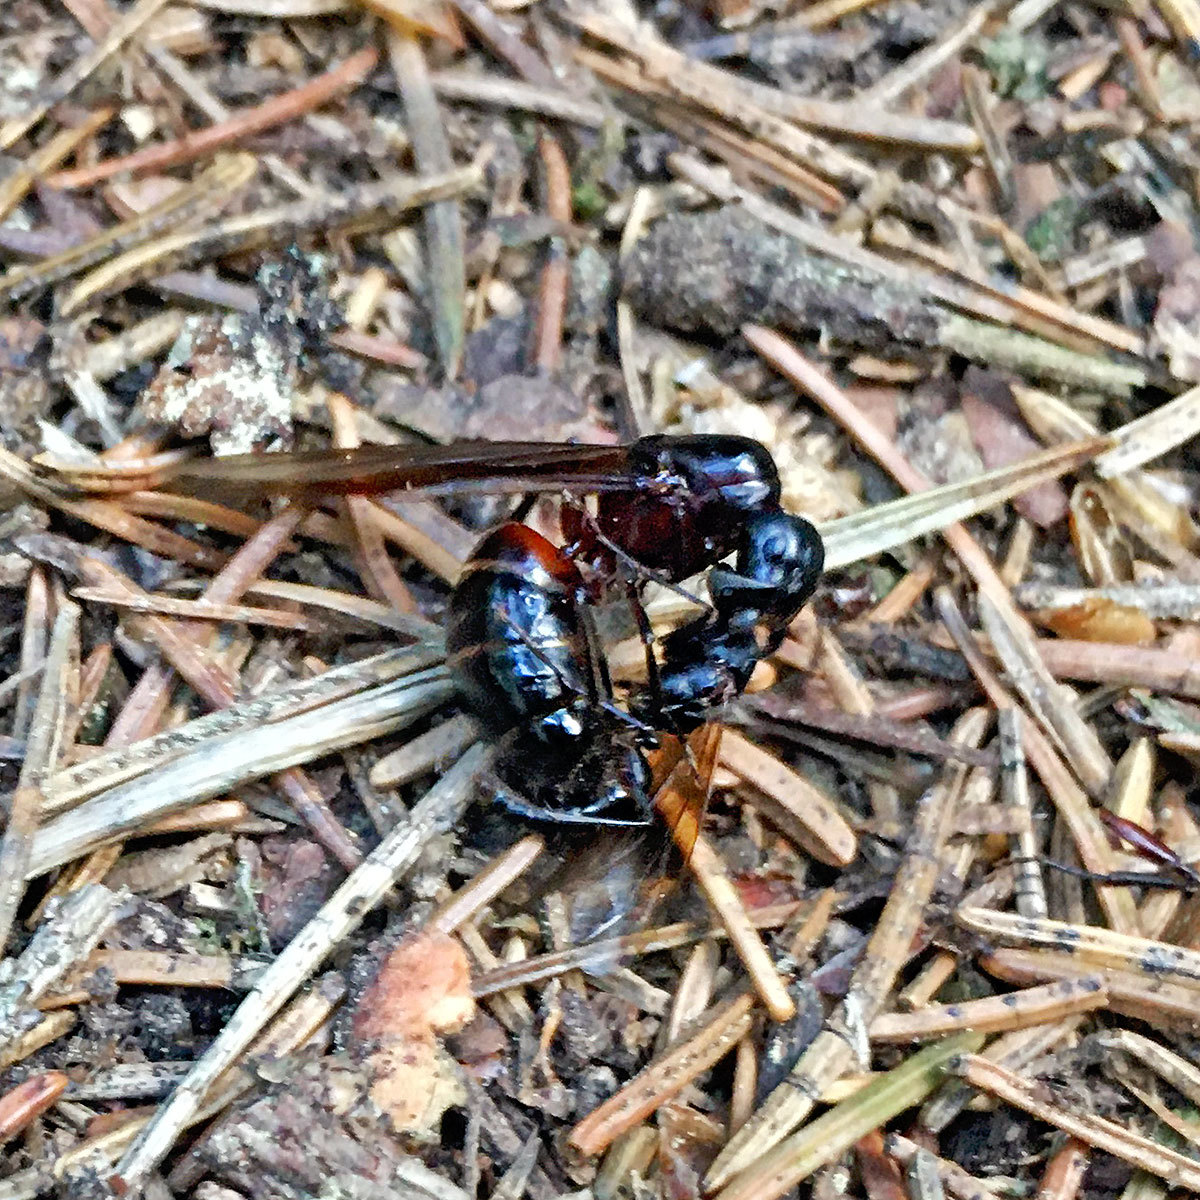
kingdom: Animalia
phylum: Arthropoda
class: Insecta
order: Hymenoptera
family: Formicidae
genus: Camponotus
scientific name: Camponotus ligniperdus
